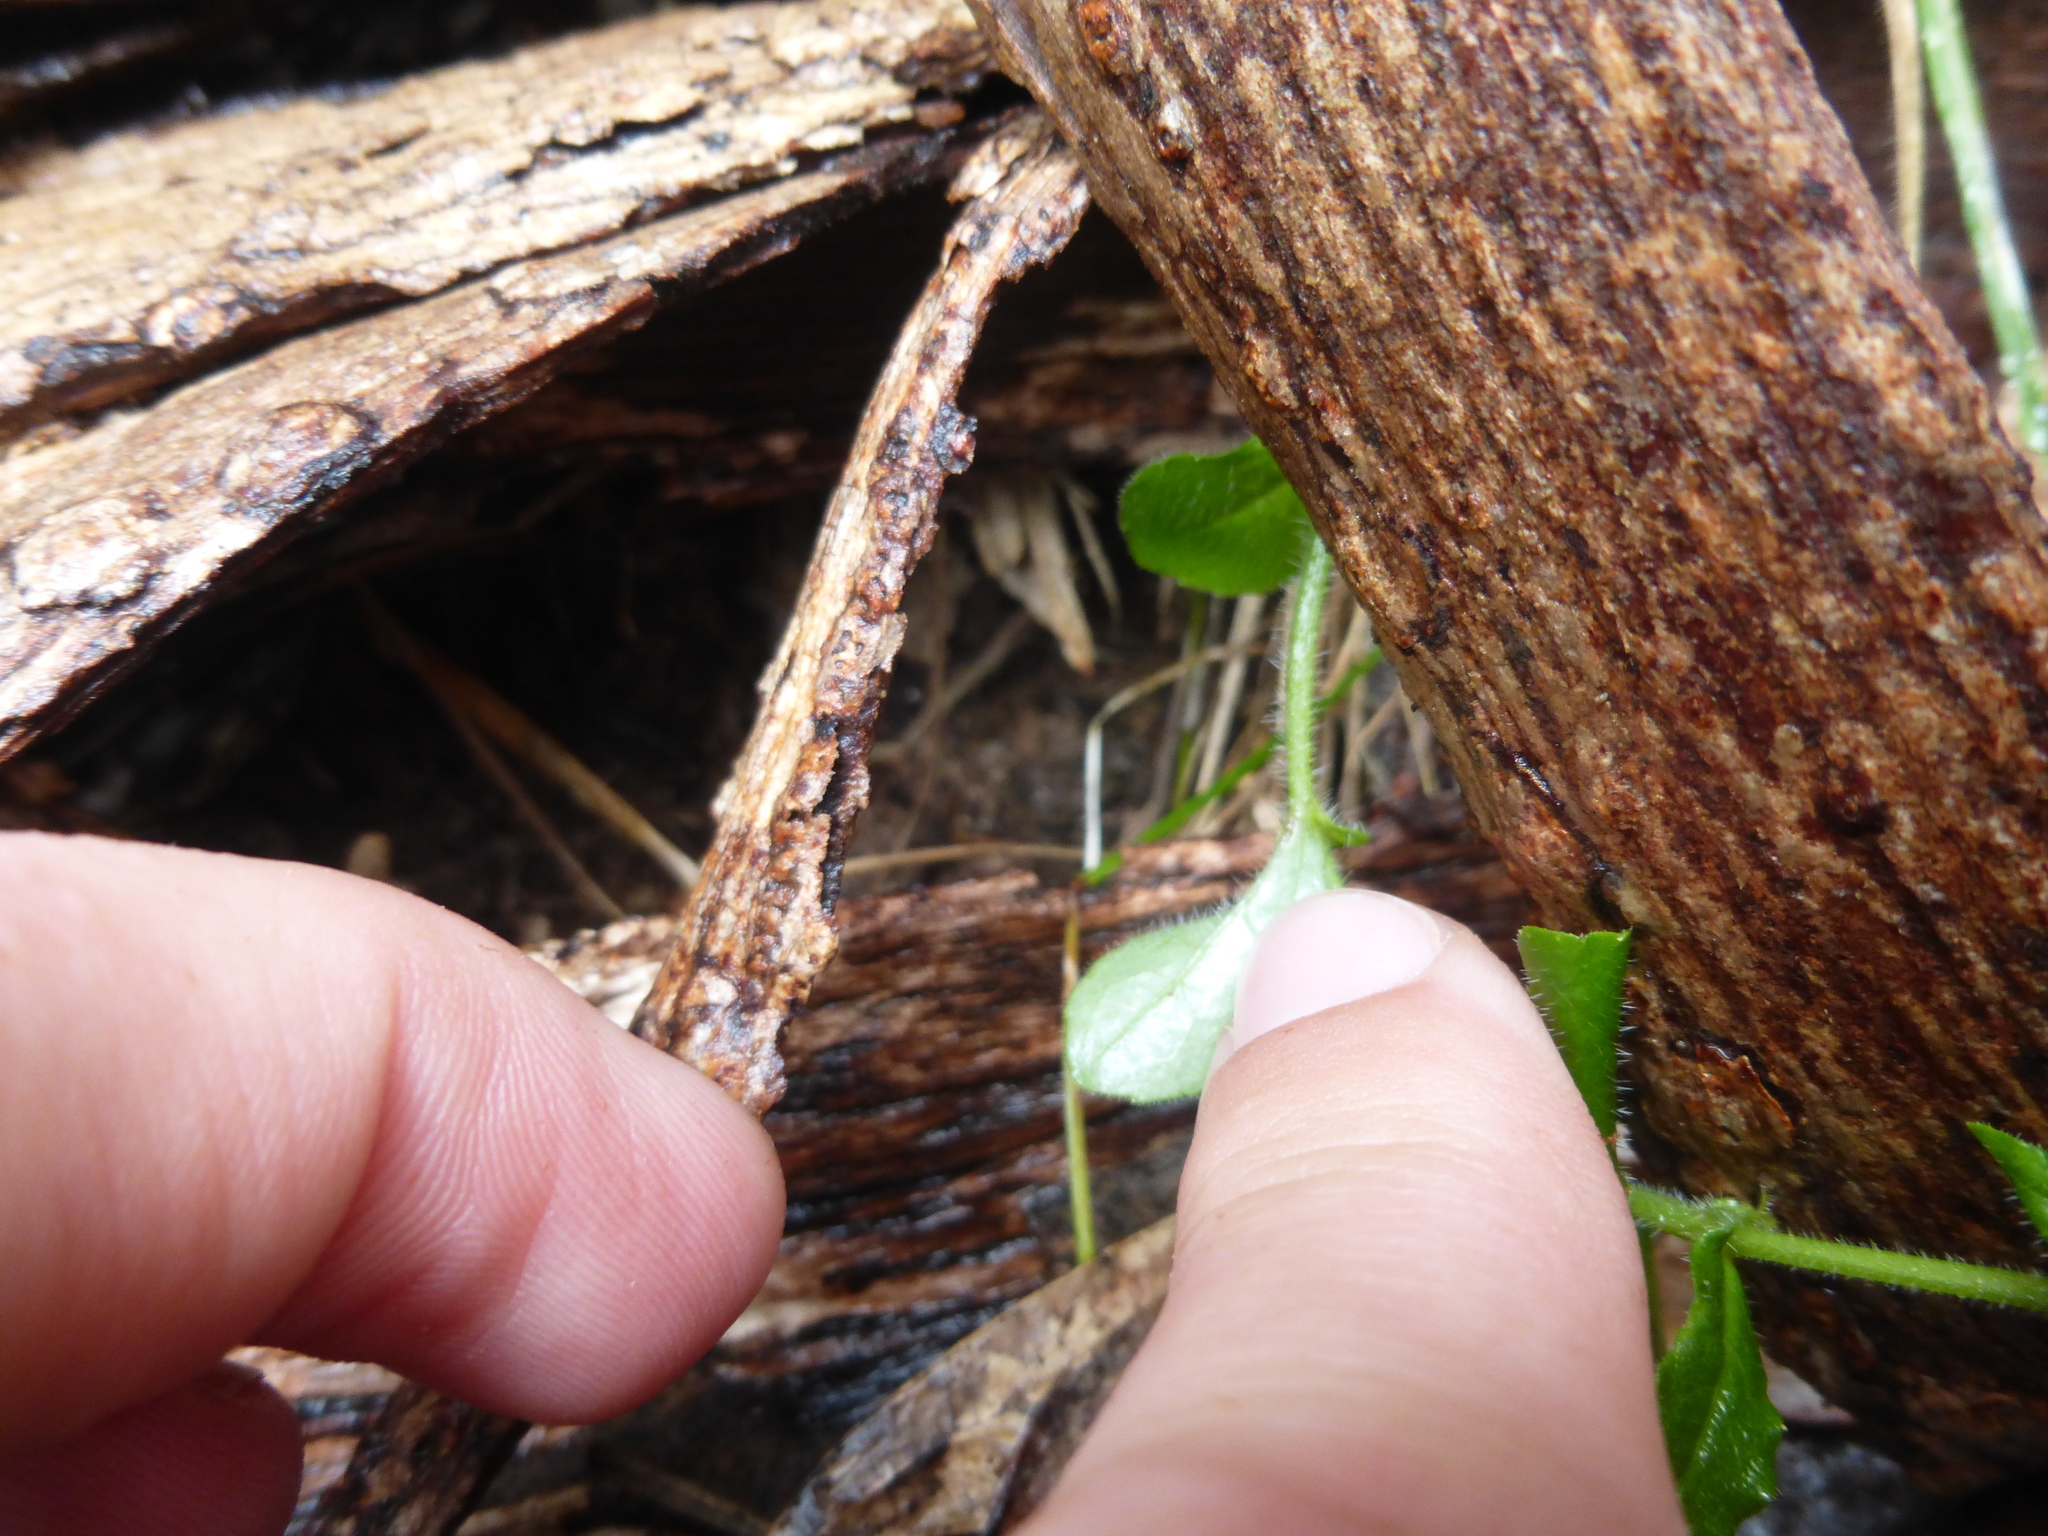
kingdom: Plantae
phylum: Tracheophyta
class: Magnoliopsida
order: Asterales
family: Campanulaceae
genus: Wahlenbergia
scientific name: Wahlenbergia stricta
